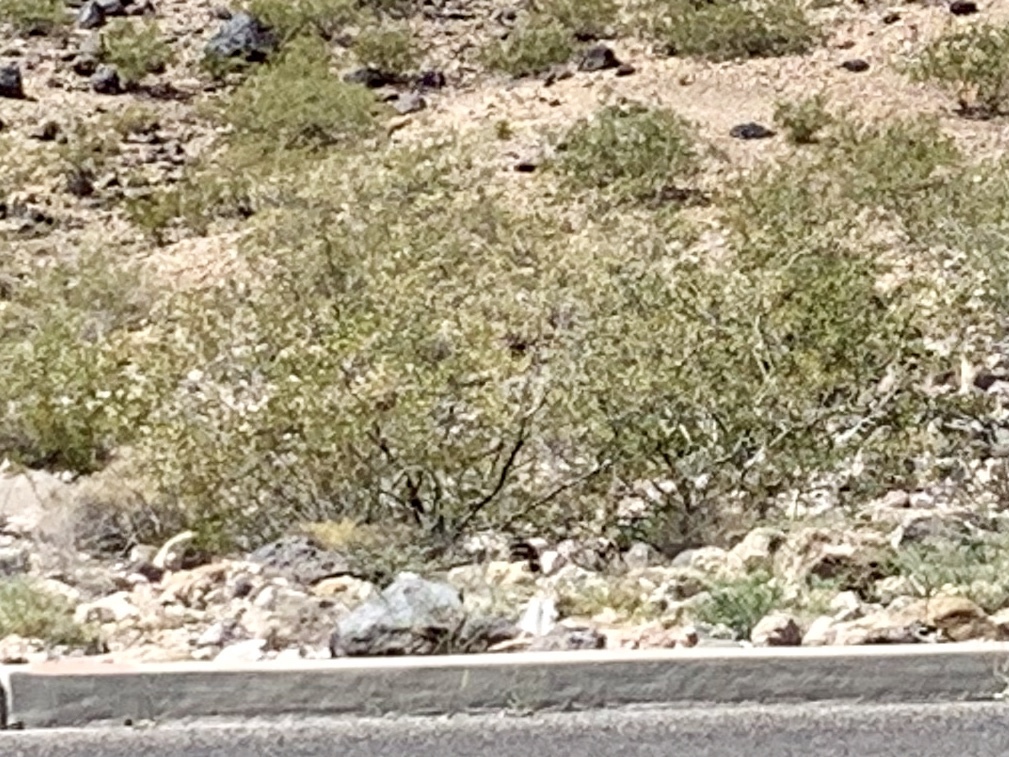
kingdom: Plantae
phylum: Tracheophyta
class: Magnoliopsida
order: Zygophyllales
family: Zygophyllaceae
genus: Larrea
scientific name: Larrea tridentata
